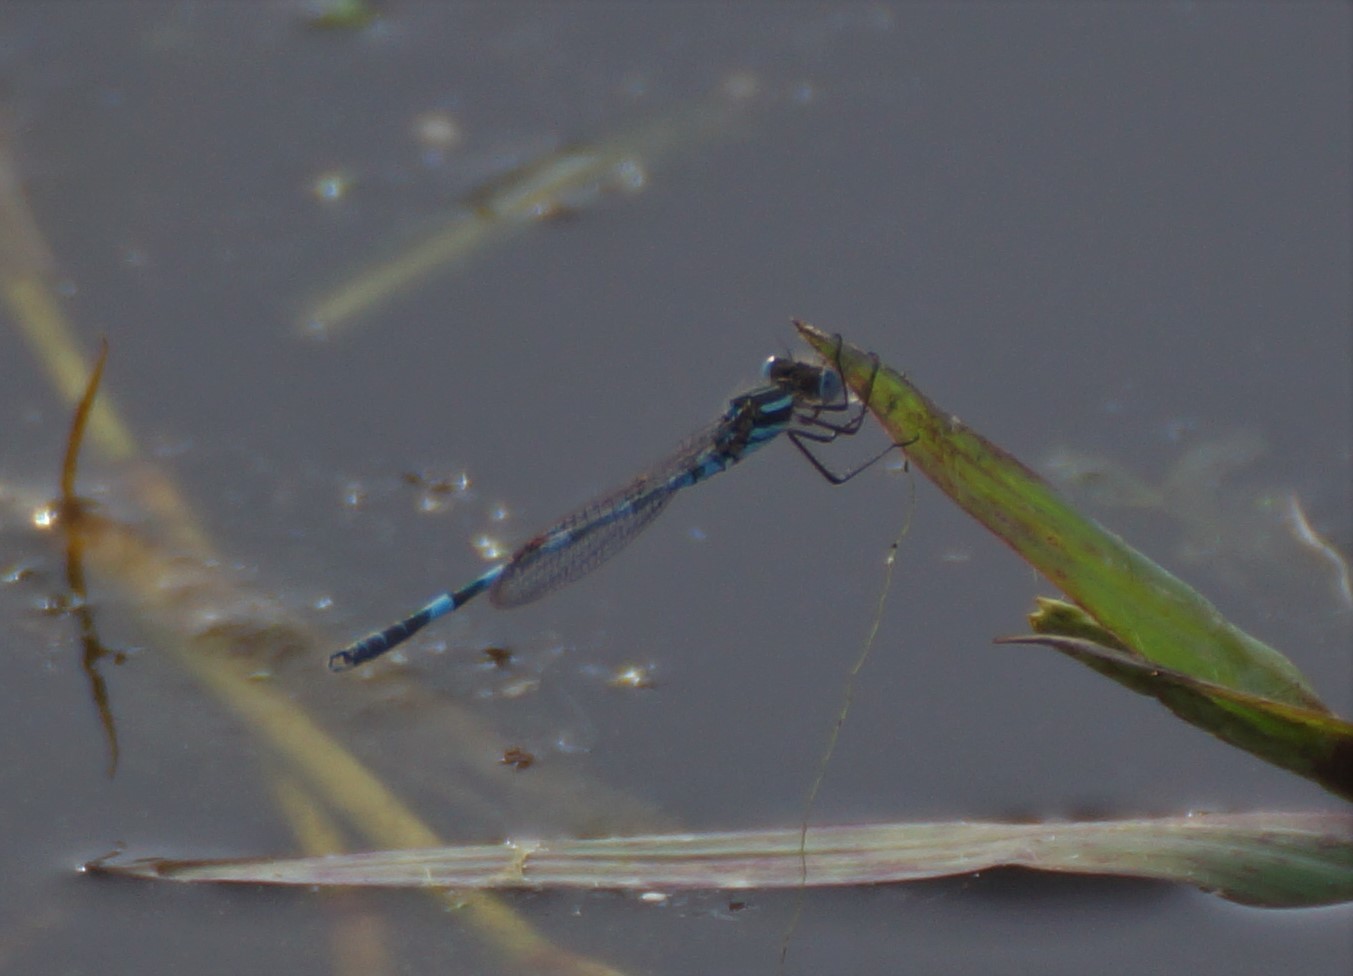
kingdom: Animalia
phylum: Arthropoda
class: Insecta
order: Odonata
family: Lestidae
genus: Austrolestes
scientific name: Austrolestes annulosus
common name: Blue ringtail
